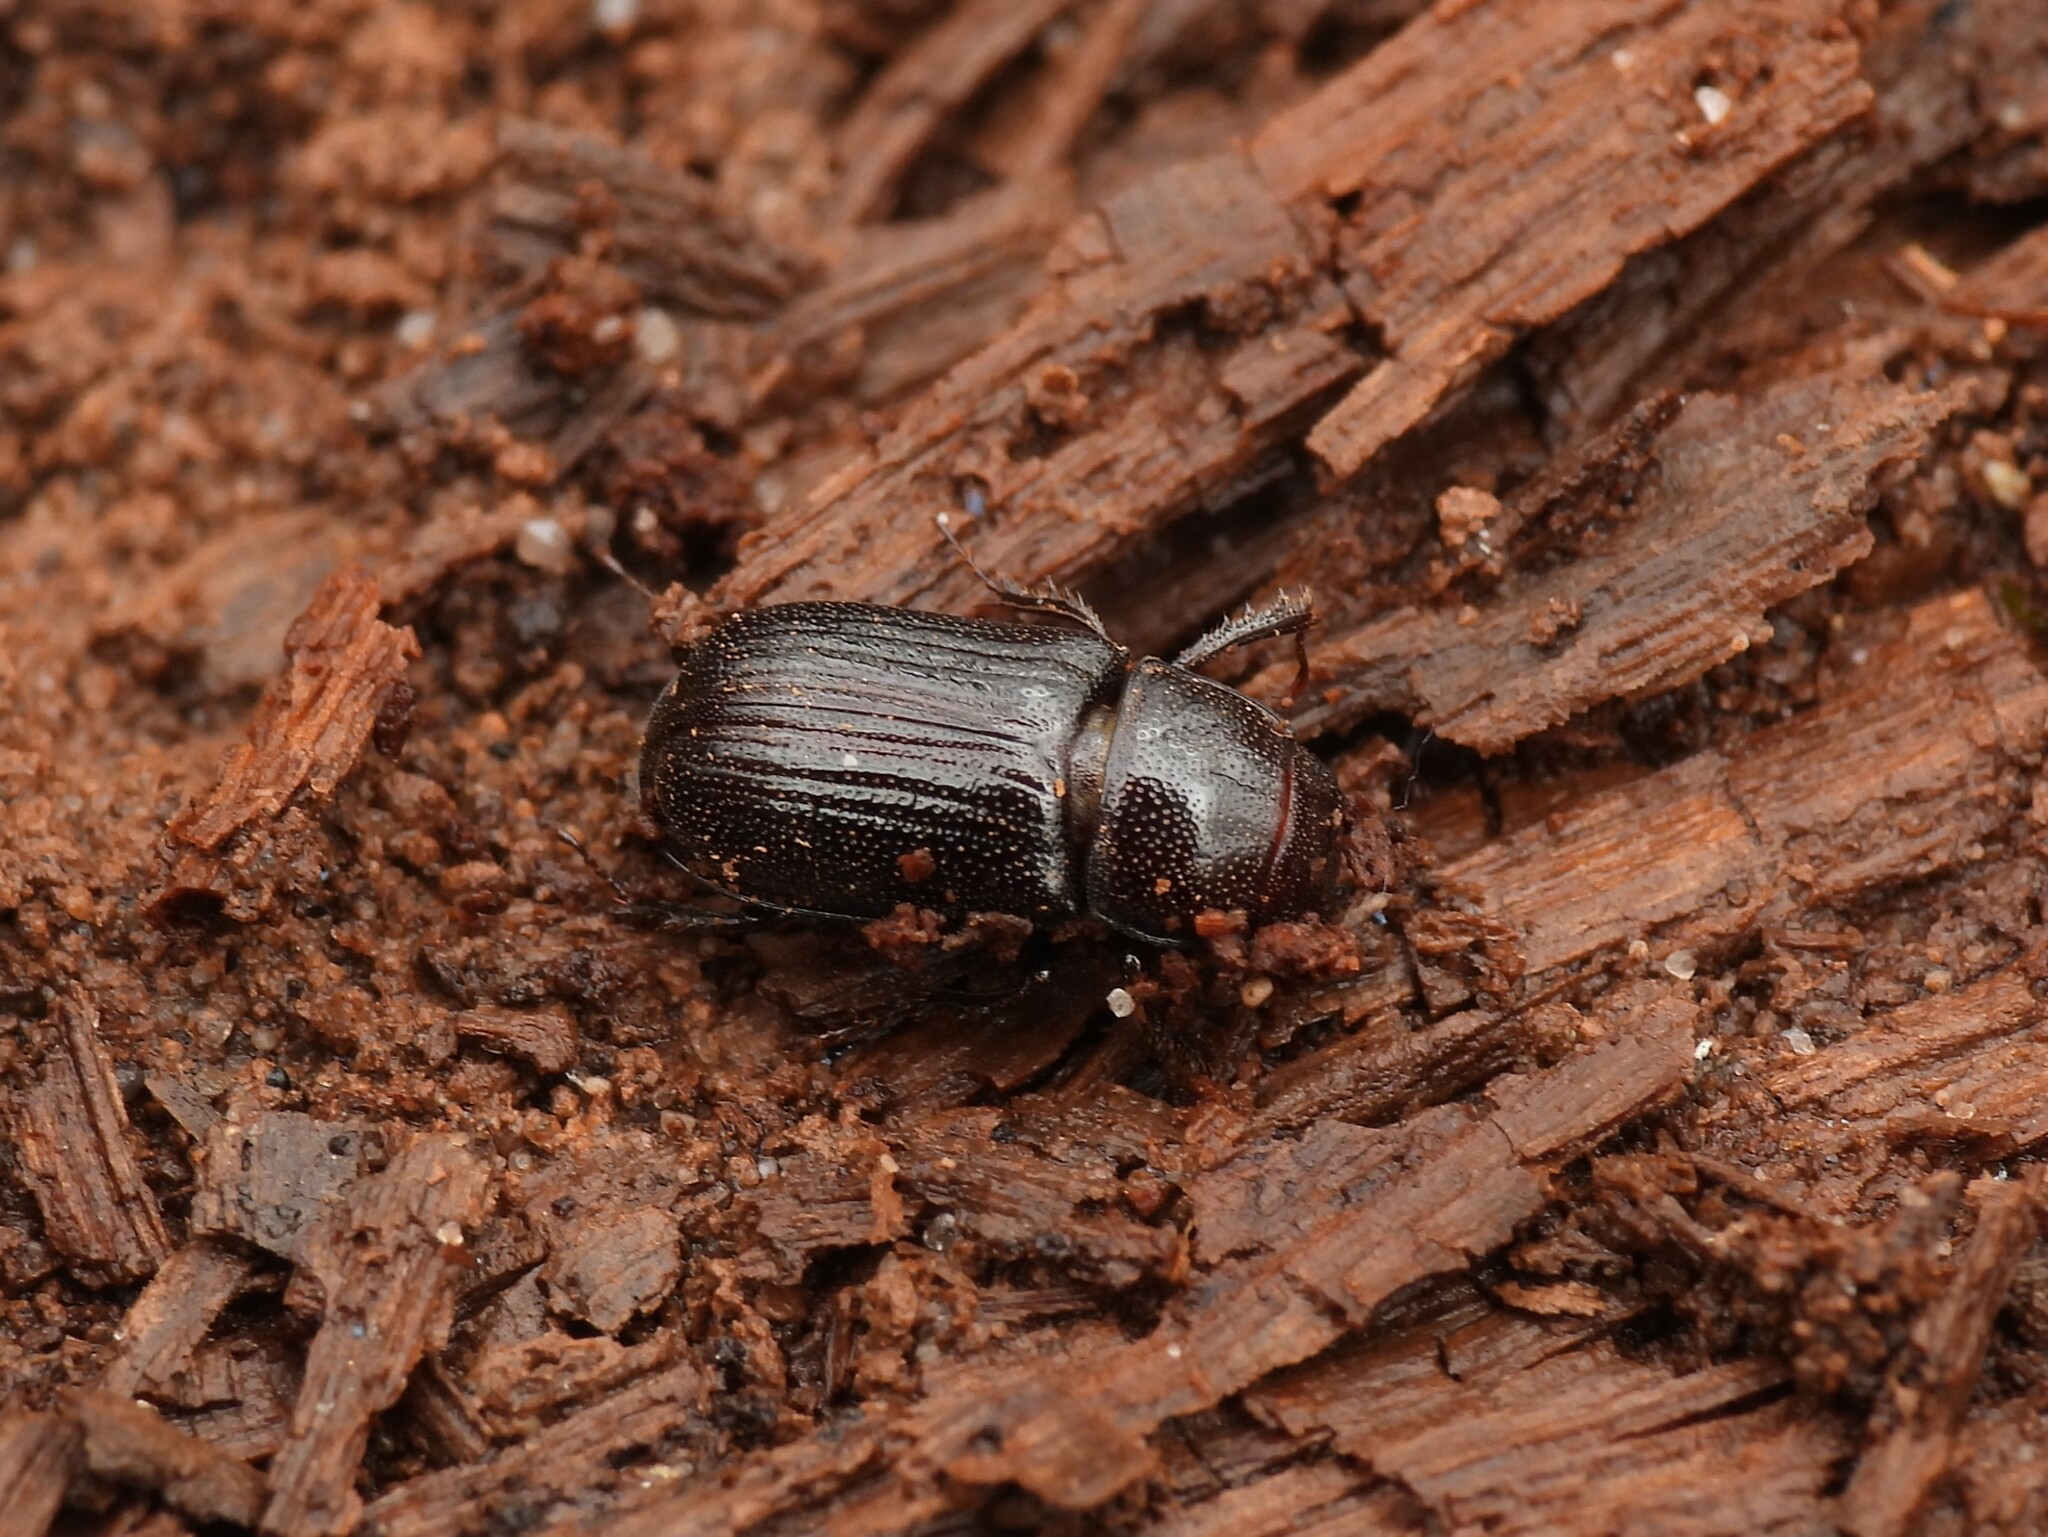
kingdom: Animalia
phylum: Arthropoda
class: Insecta
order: Coleoptera
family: Lucanidae
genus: Ceruchus
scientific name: Ceruchus piceus
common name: Red-rot decay stag beetle
